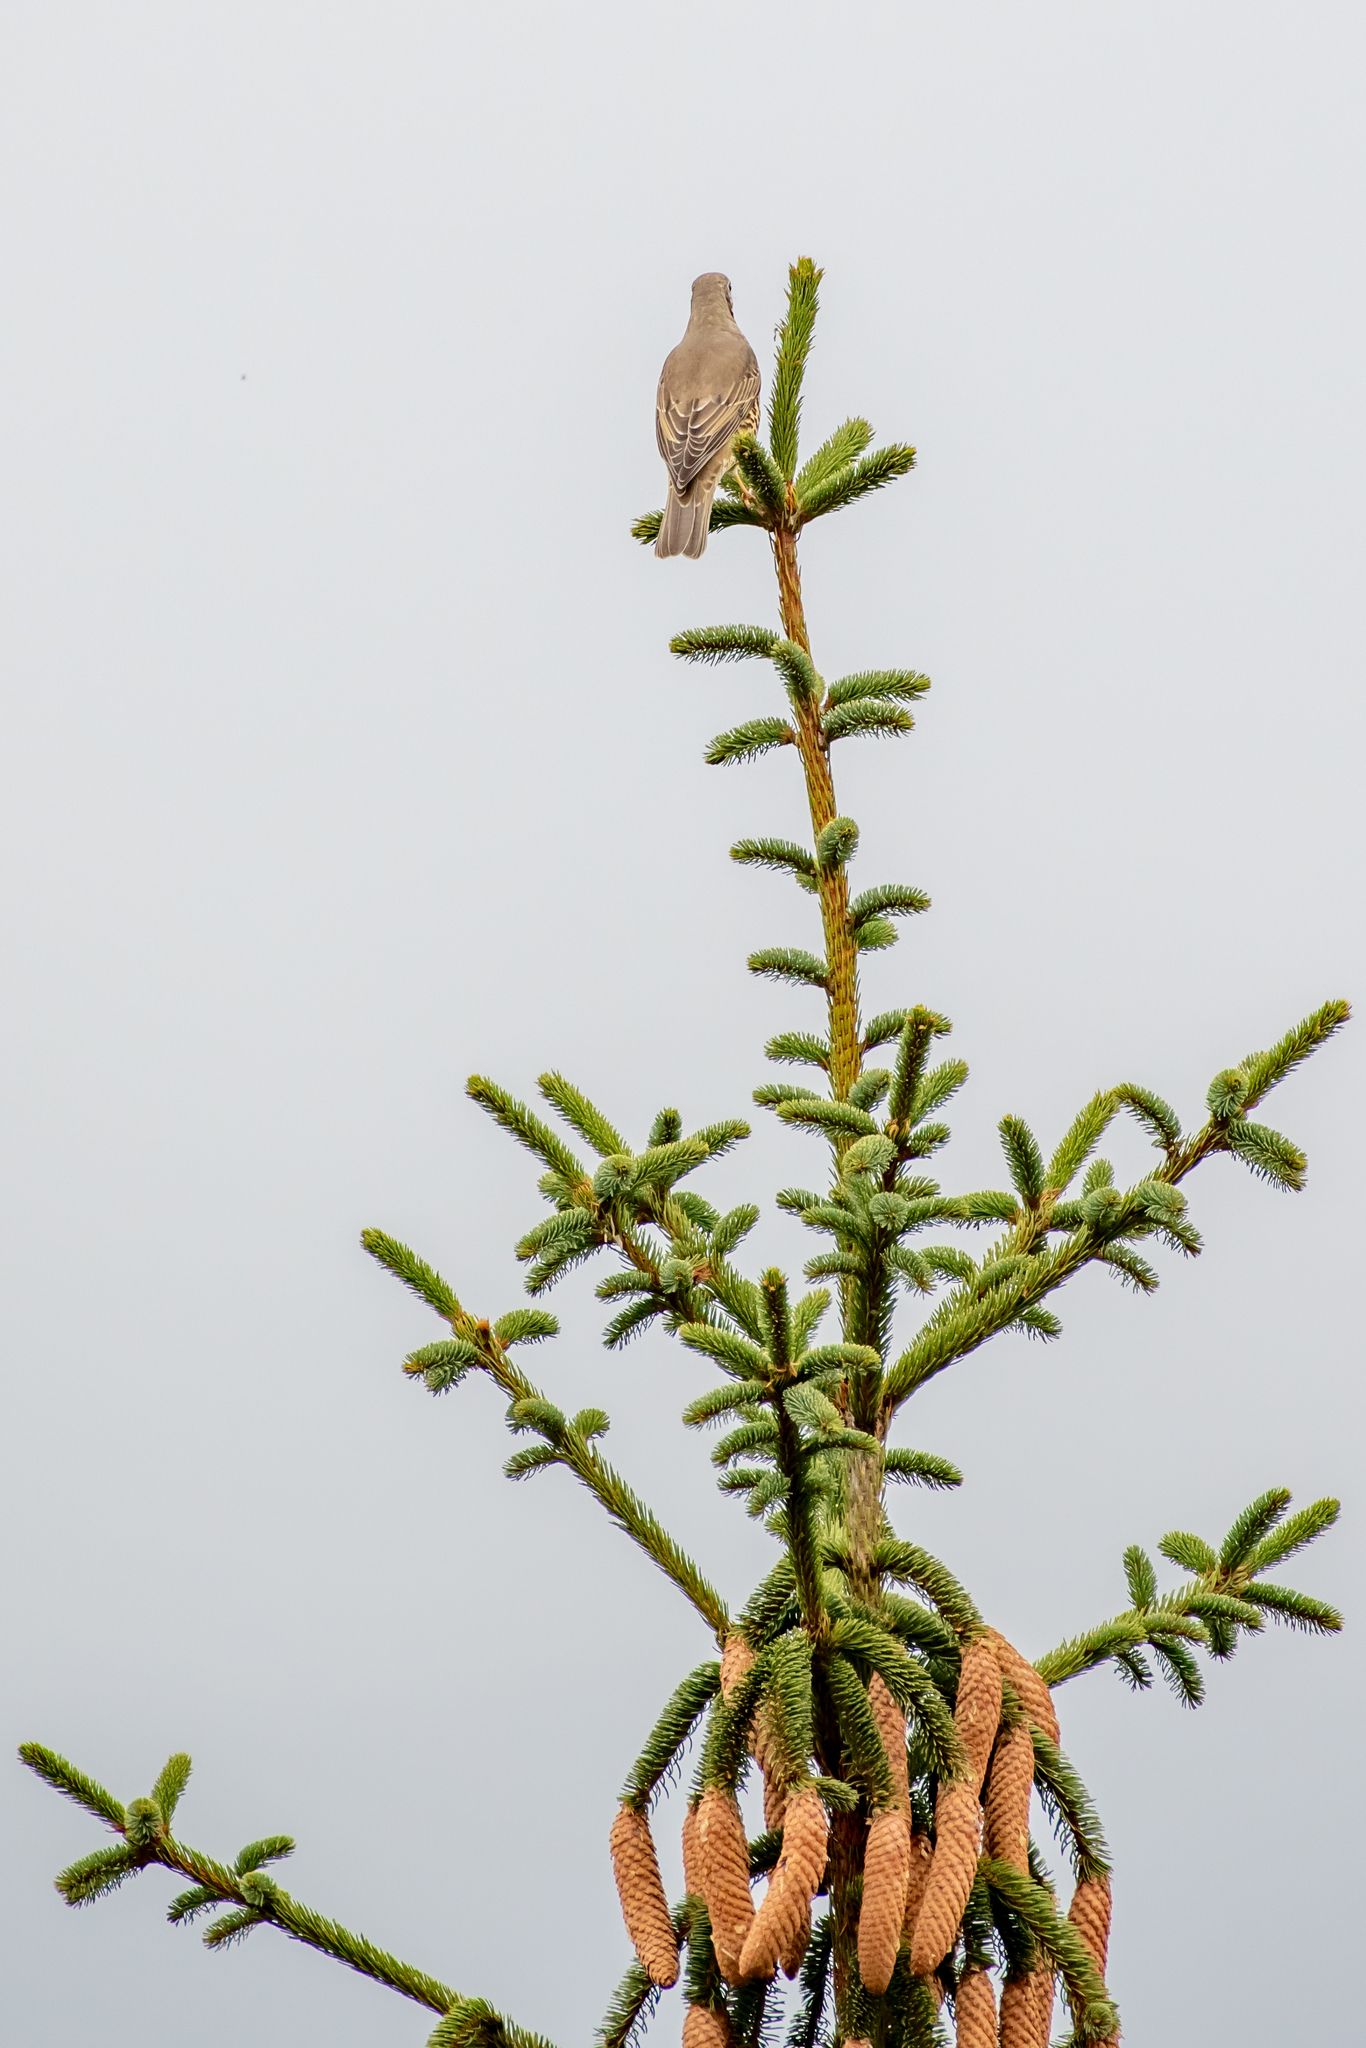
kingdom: Animalia
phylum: Chordata
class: Aves
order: Passeriformes
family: Turdidae
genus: Turdus
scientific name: Turdus viscivorus
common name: Mistle thrush
